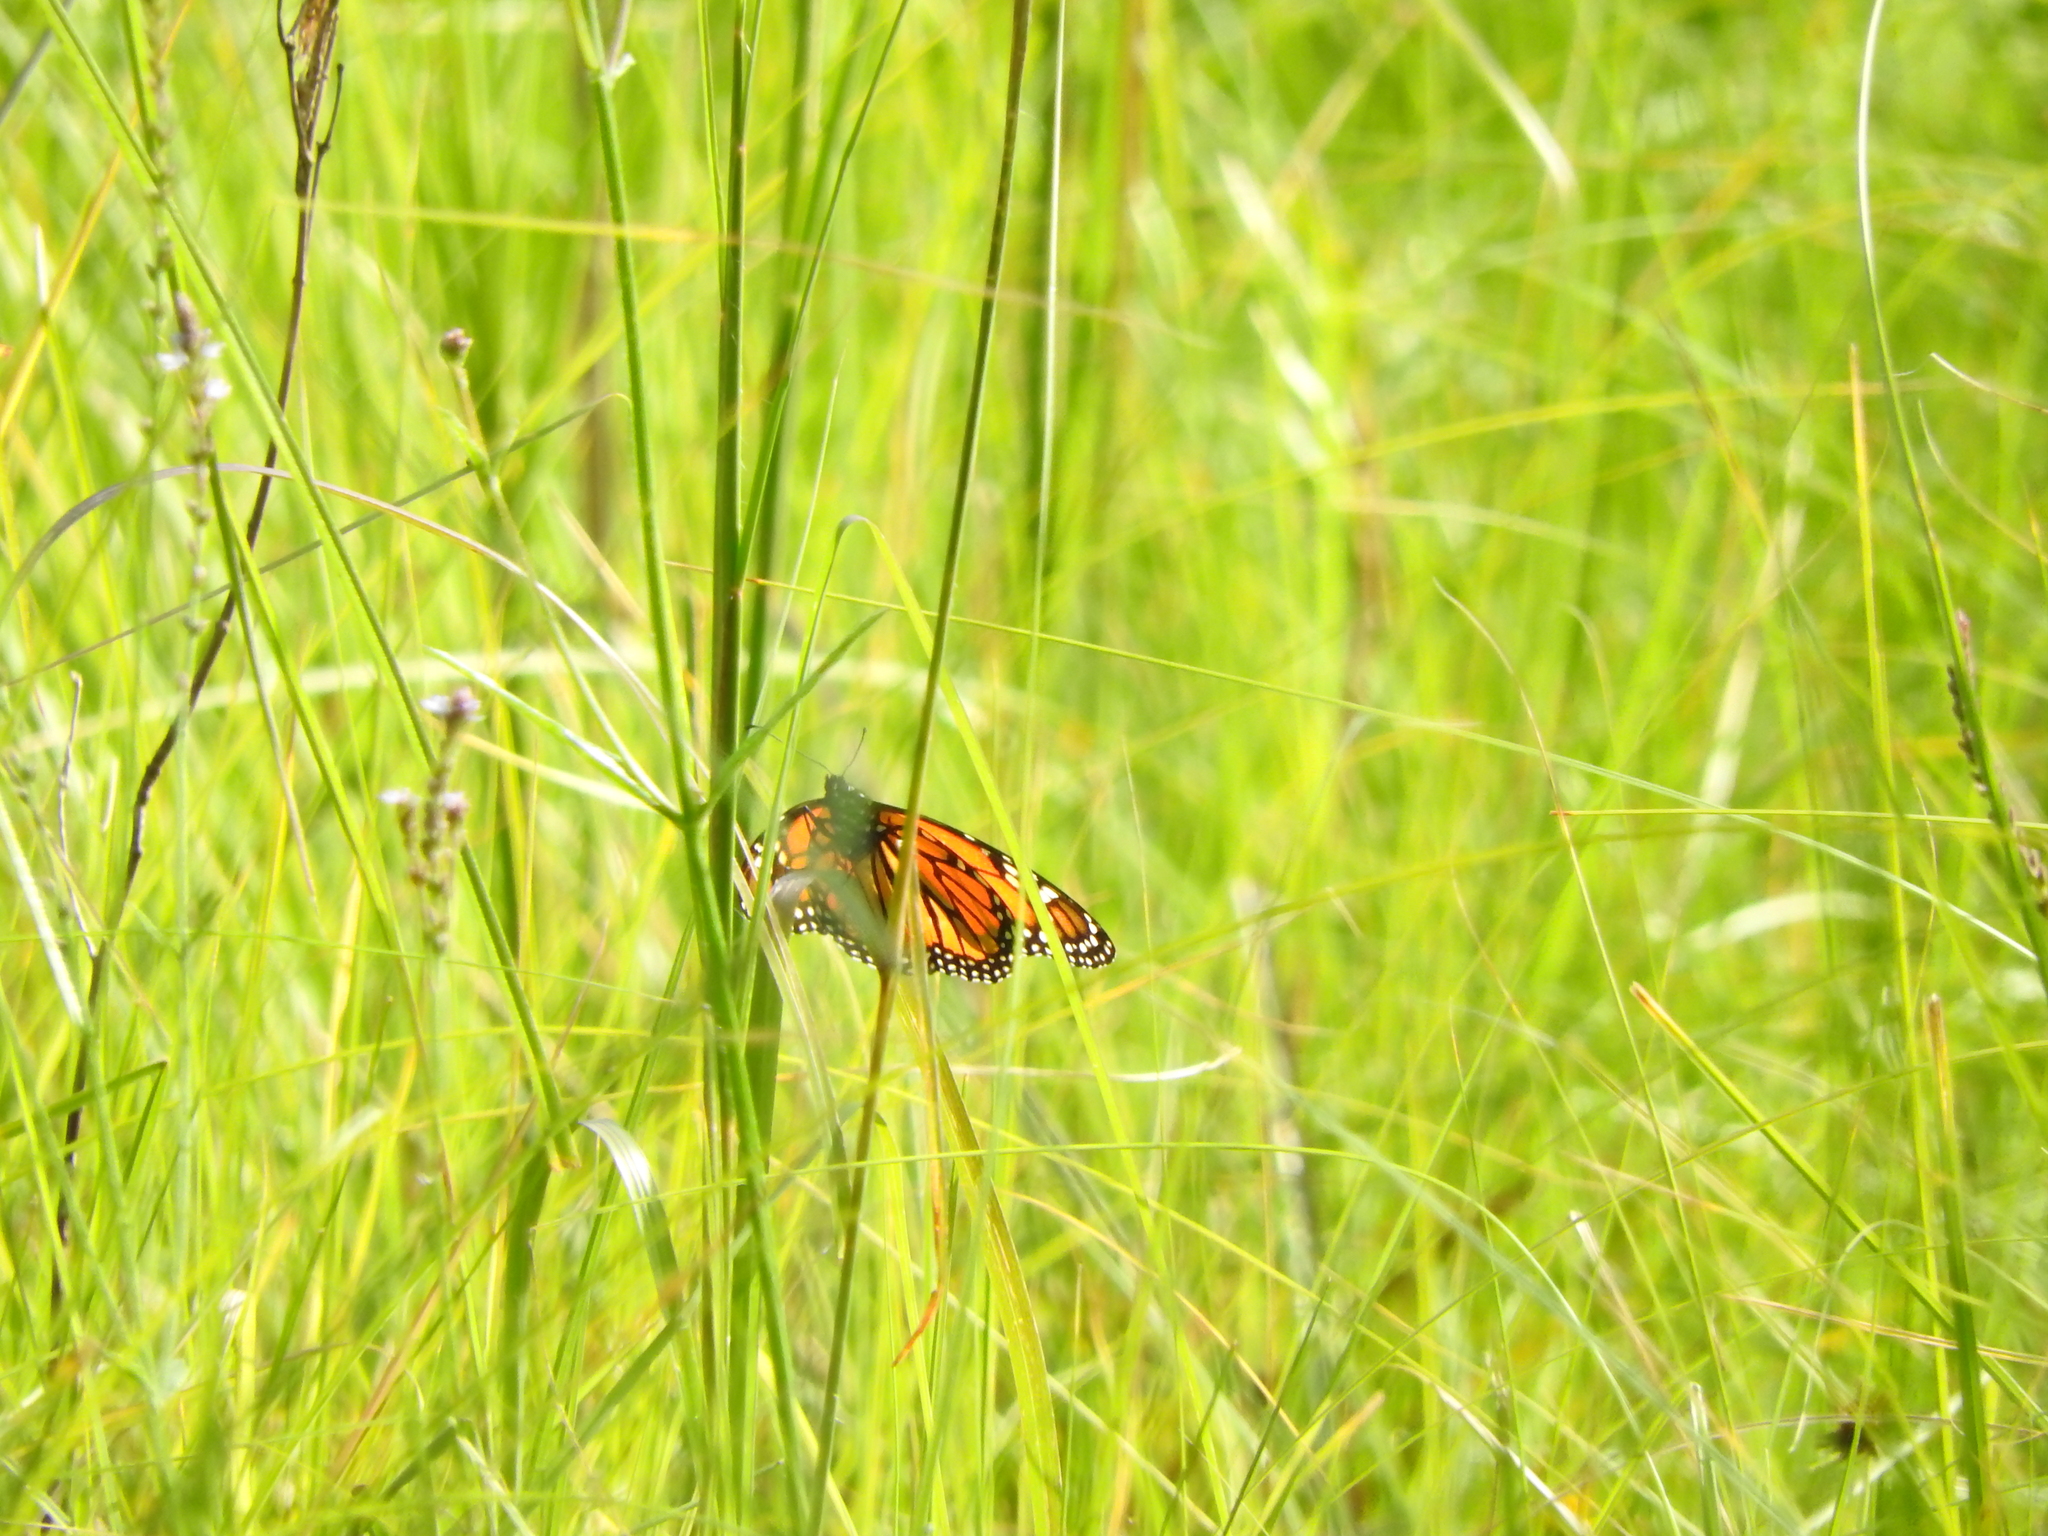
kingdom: Animalia
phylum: Arthropoda
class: Insecta
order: Lepidoptera
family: Nymphalidae
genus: Danaus
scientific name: Danaus plexippus
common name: Monarch
